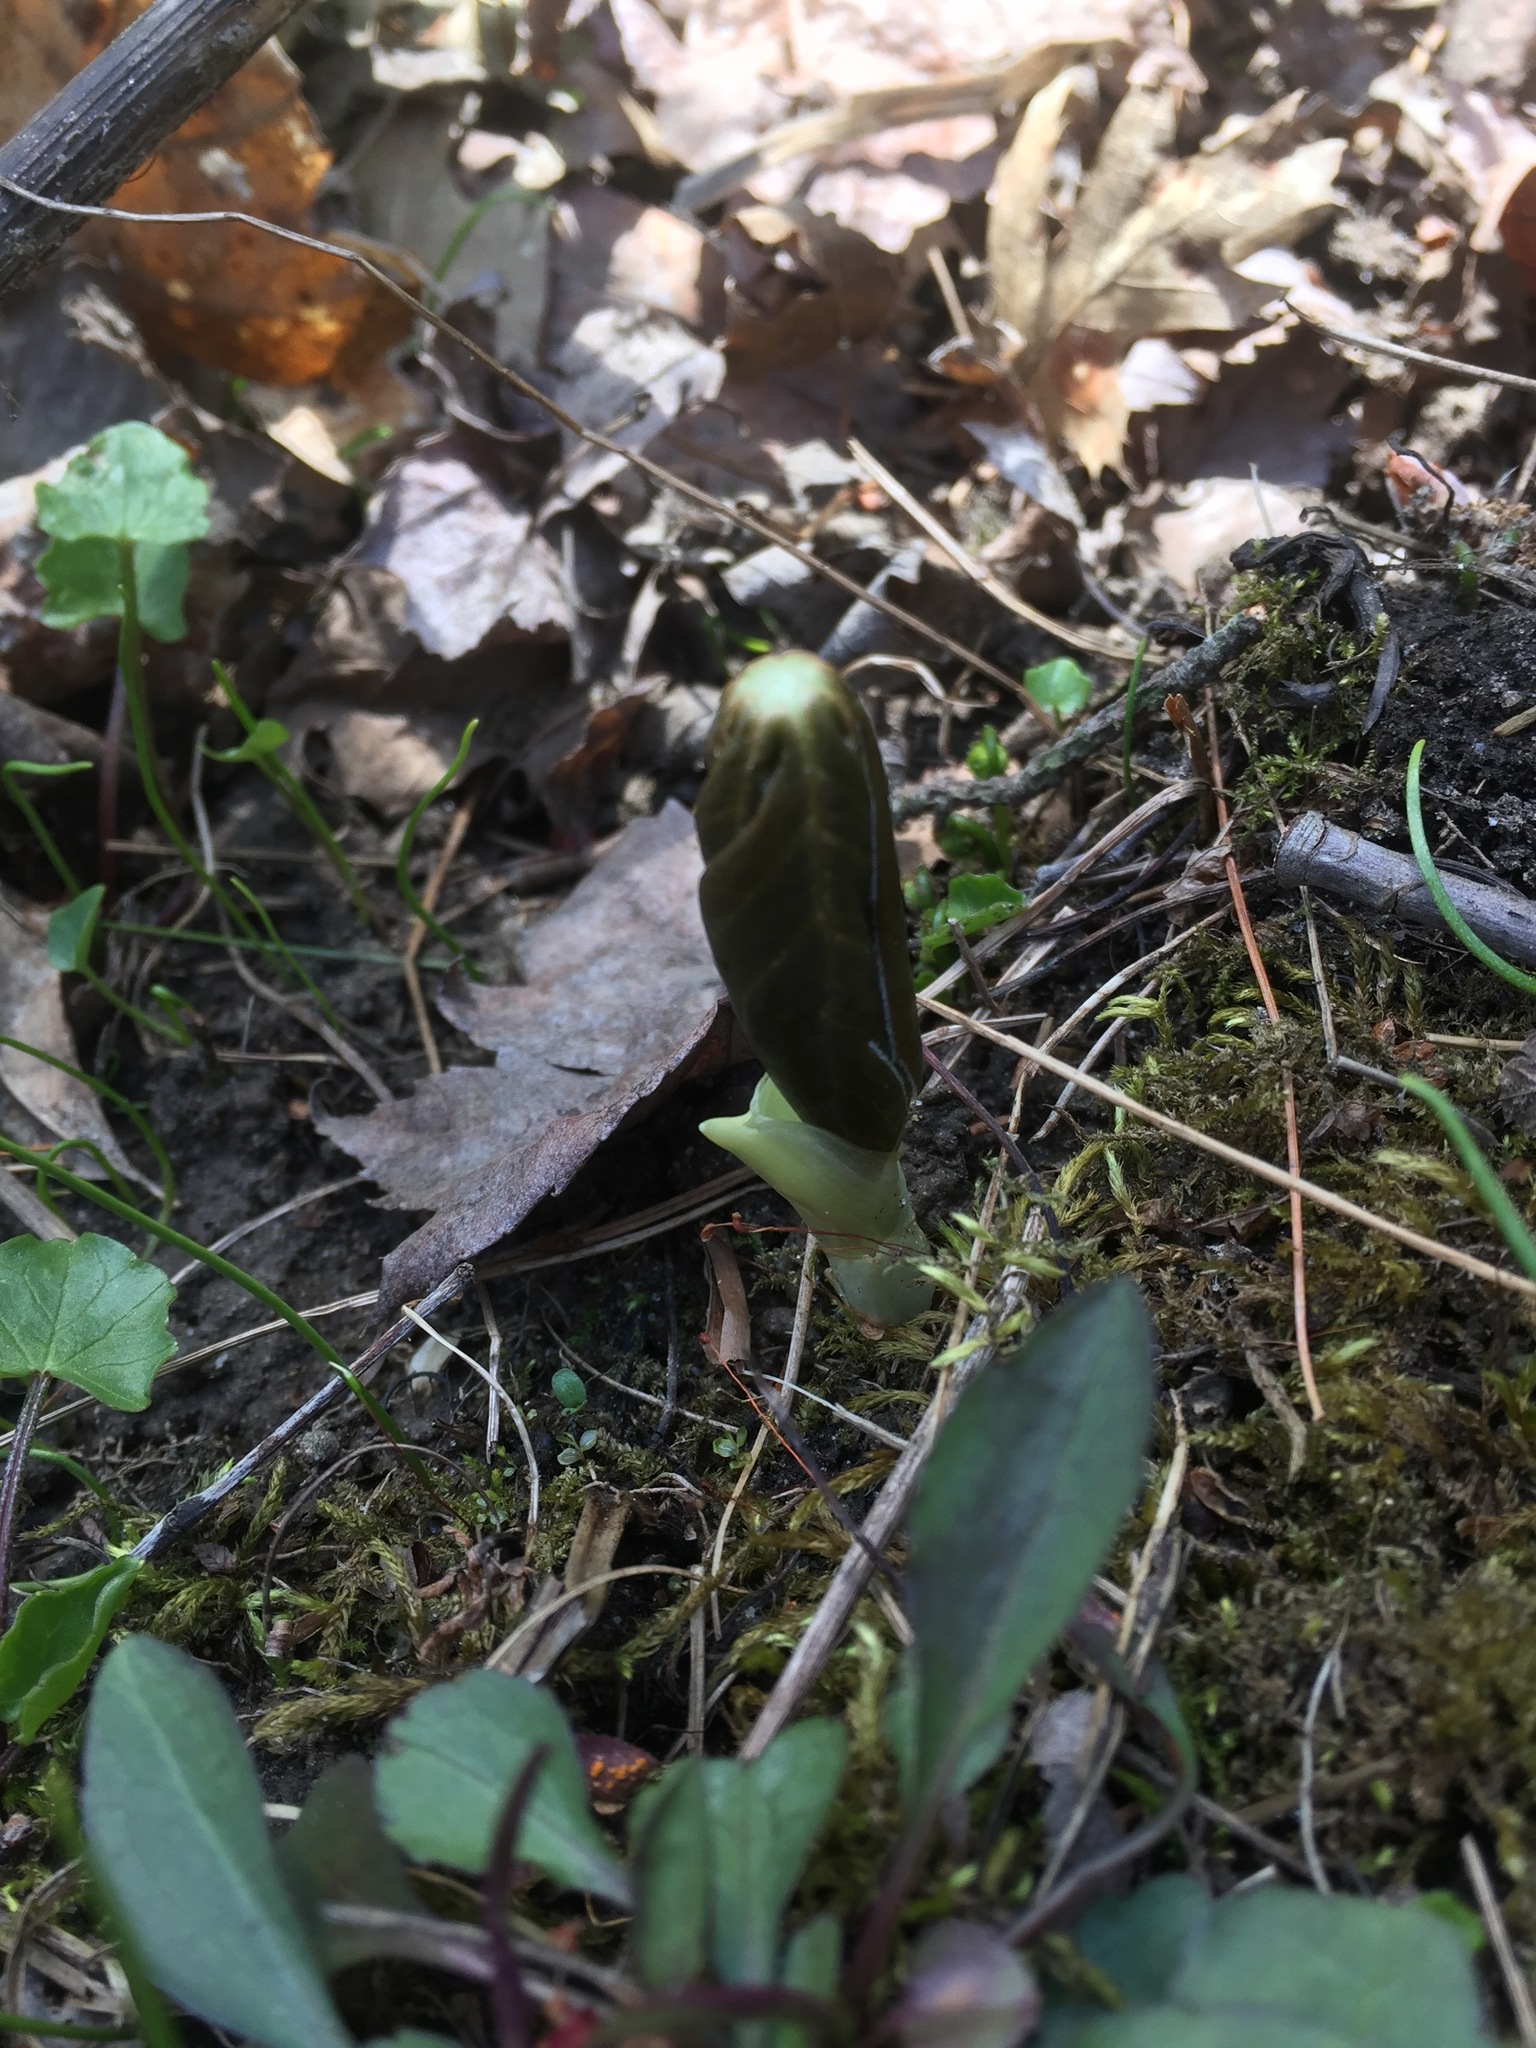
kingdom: Plantae
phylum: Tracheophyta
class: Magnoliopsida
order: Ranunculales
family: Berberidaceae
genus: Podophyllum
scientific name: Podophyllum peltatum
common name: Wild mandrake
